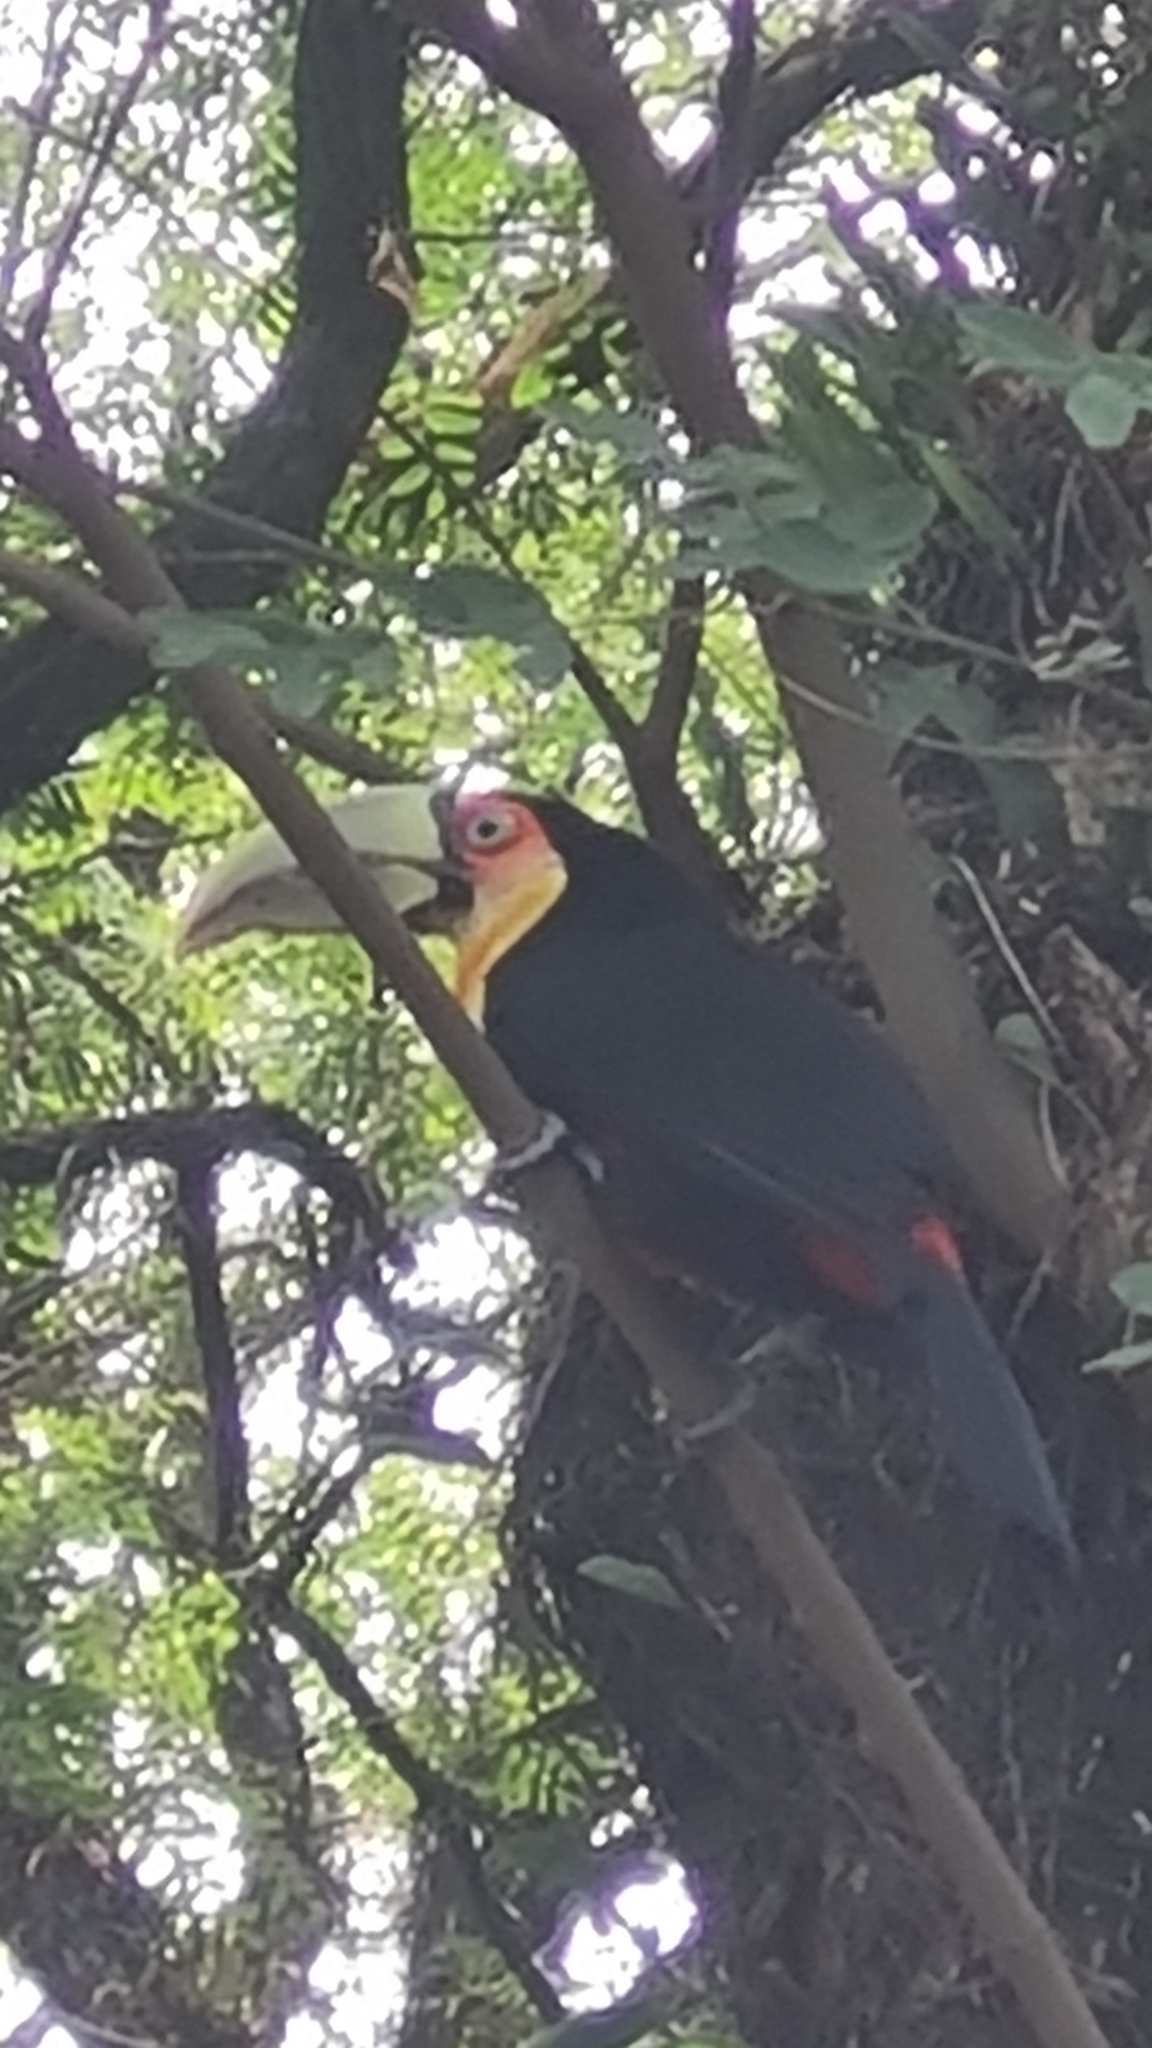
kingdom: Animalia
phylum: Chordata
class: Aves
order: Piciformes
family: Ramphastidae
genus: Ramphastos
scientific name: Ramphastos dicolorus
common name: Green-billed toucan
